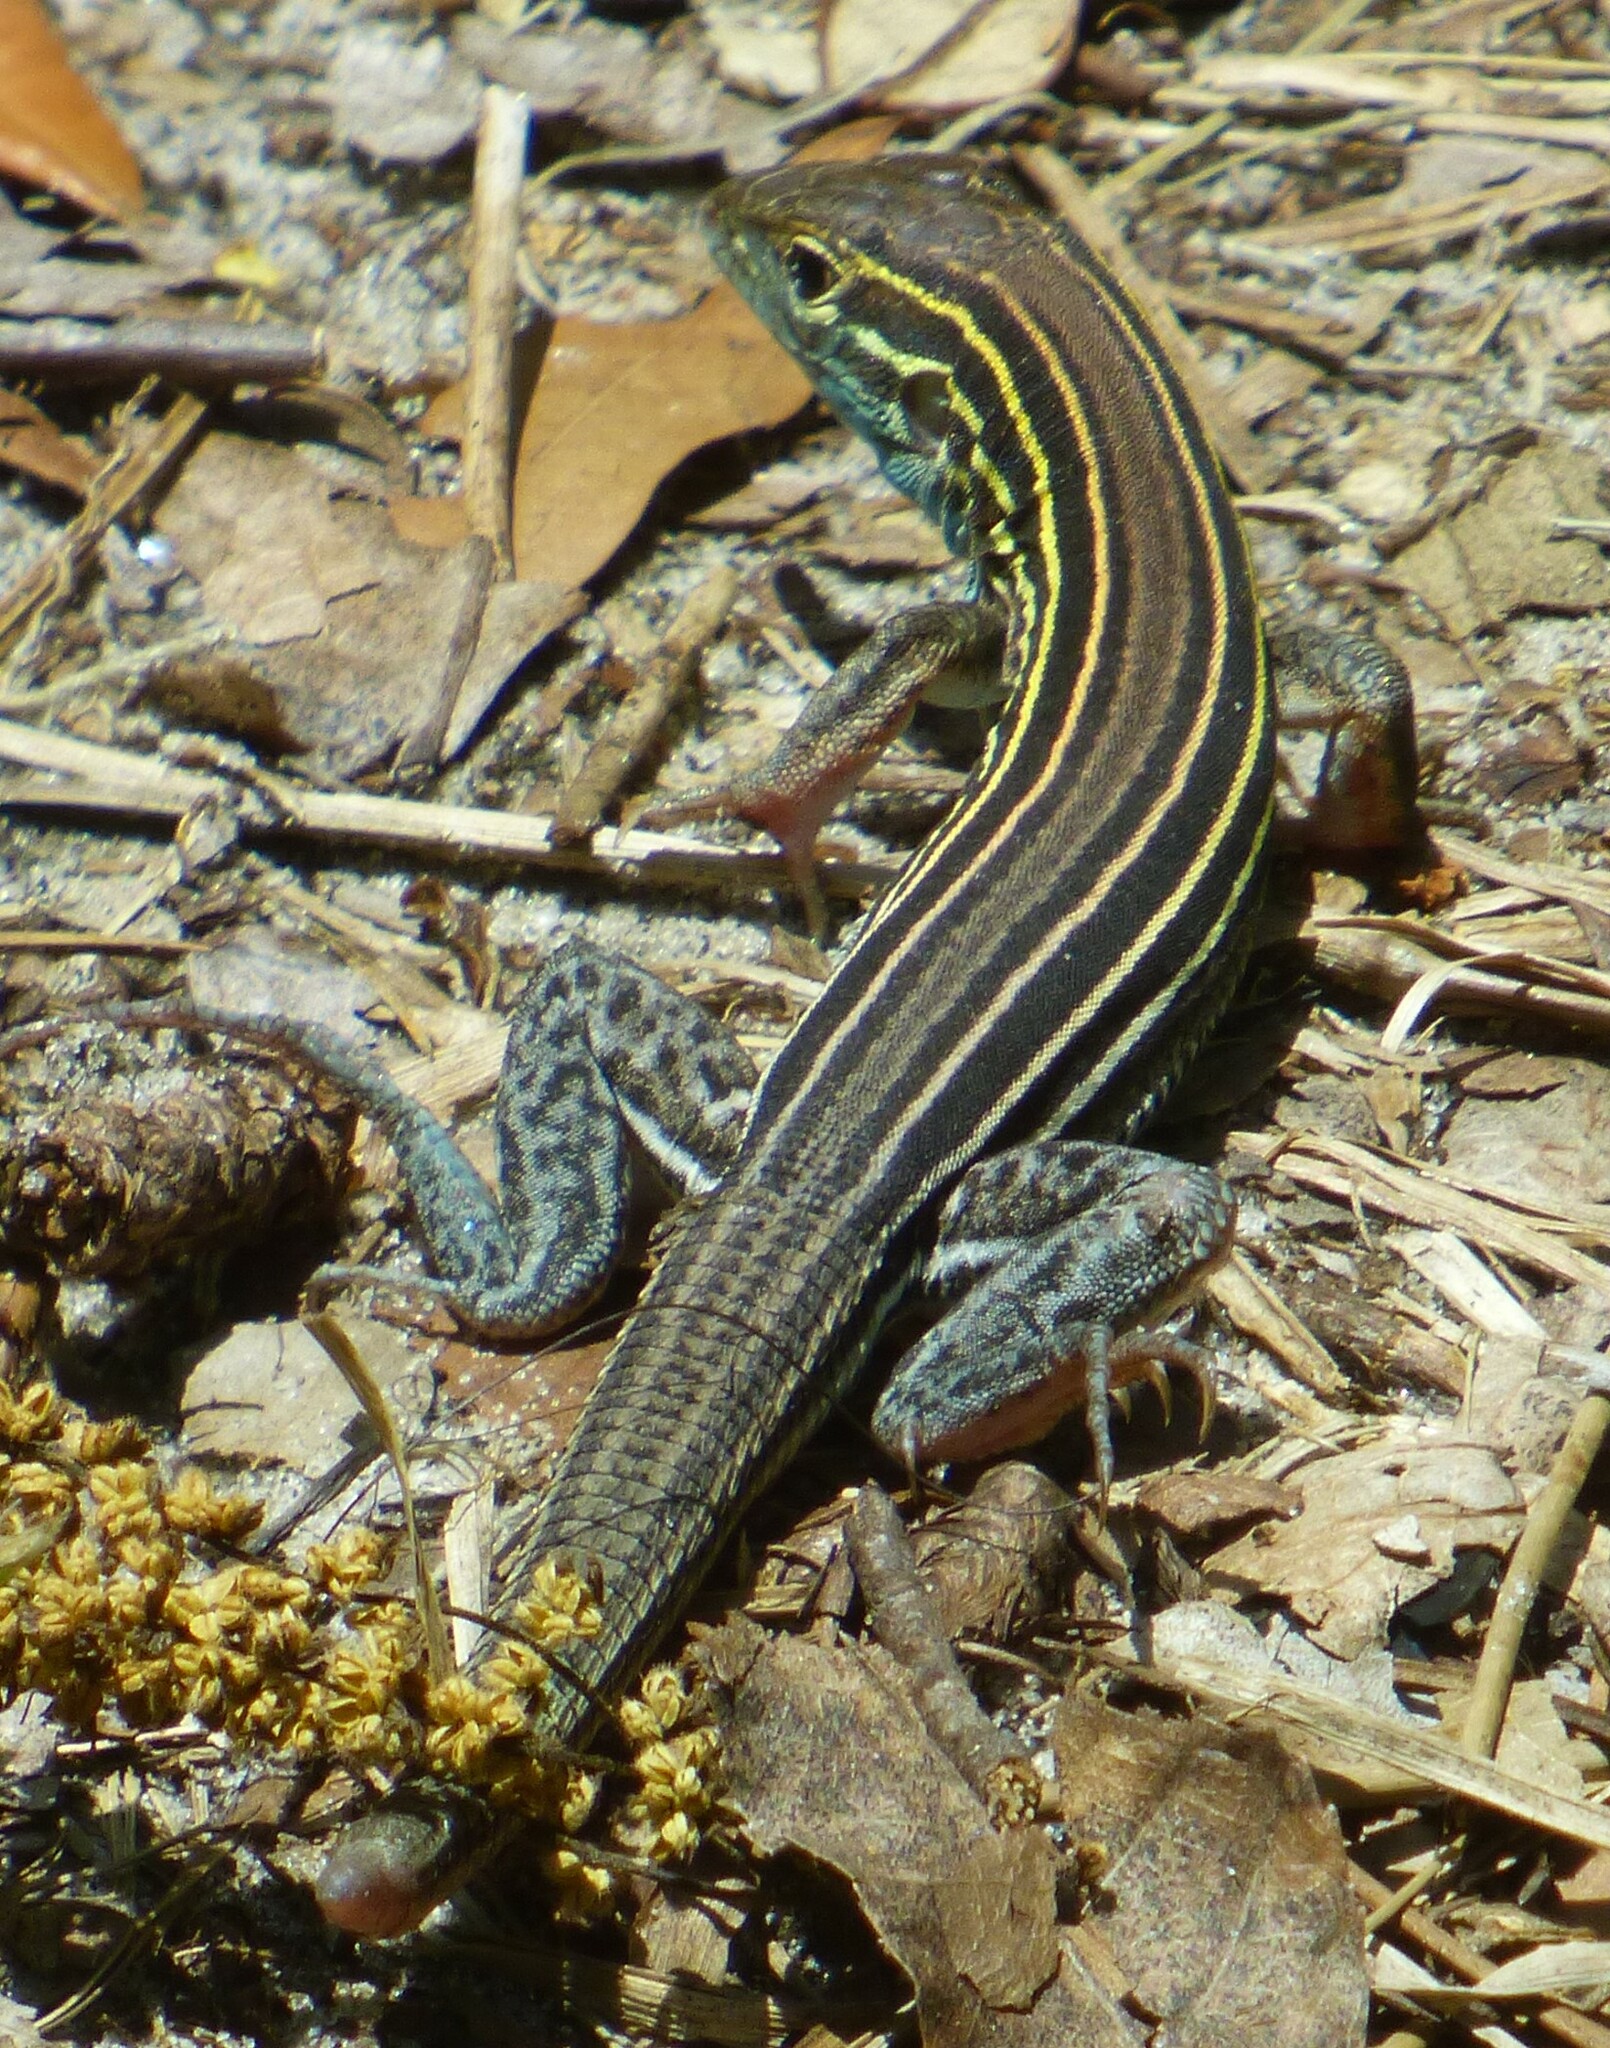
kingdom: Animalia
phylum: Chordata
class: Squamata
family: Teiidae
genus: Aspidoscelis
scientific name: Aspidoscelis sexlineatus
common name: Six-lined racerunner
